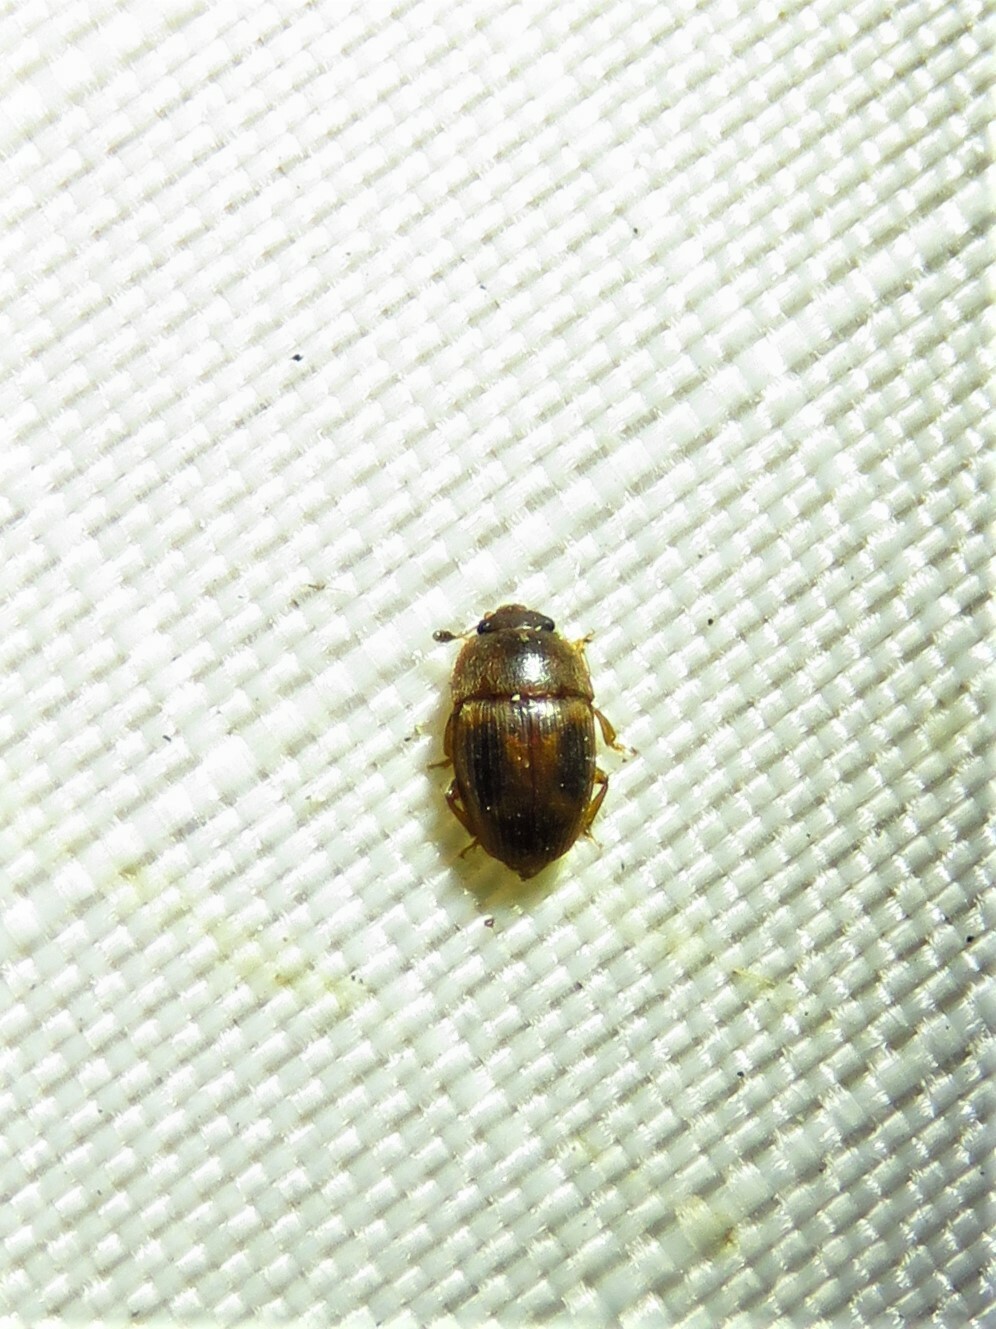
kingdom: Animalia
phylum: Arthropoda
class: Insecta
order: Coleoptera
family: Nitidulidae
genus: Stelidota
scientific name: Stelidota coenosa
